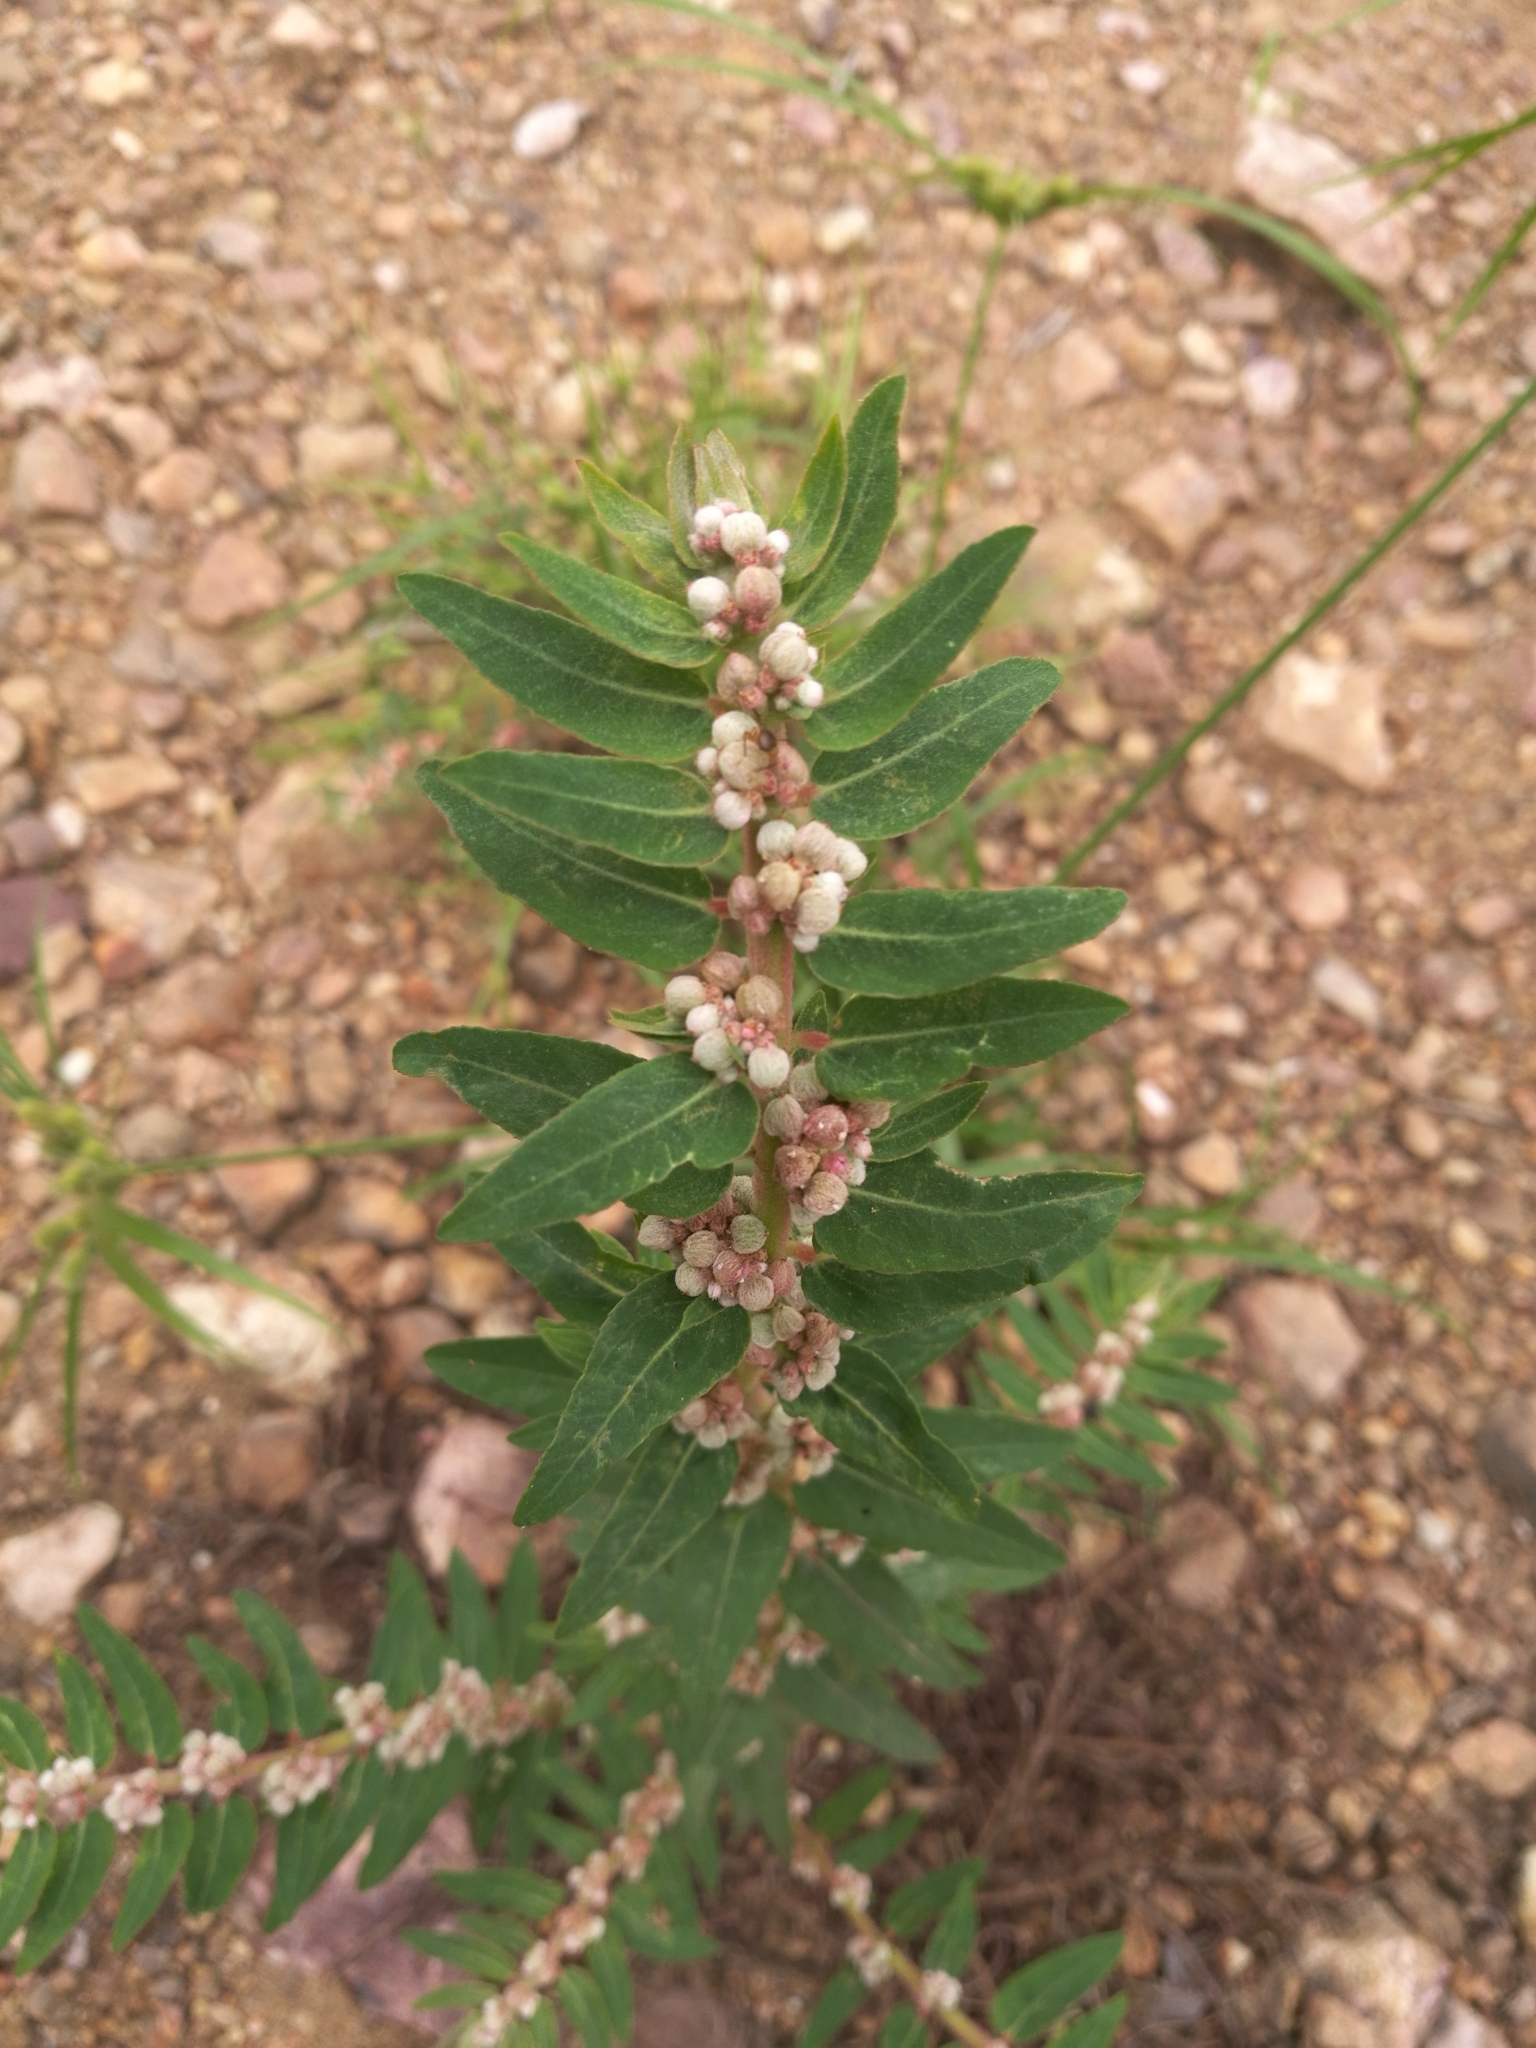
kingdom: Plantae
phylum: Tracheophyta
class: Magnoliopsida
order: Malpighiales
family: Euphorbiaceae
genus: Euphorbia
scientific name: Euphorbia convolvuloides
